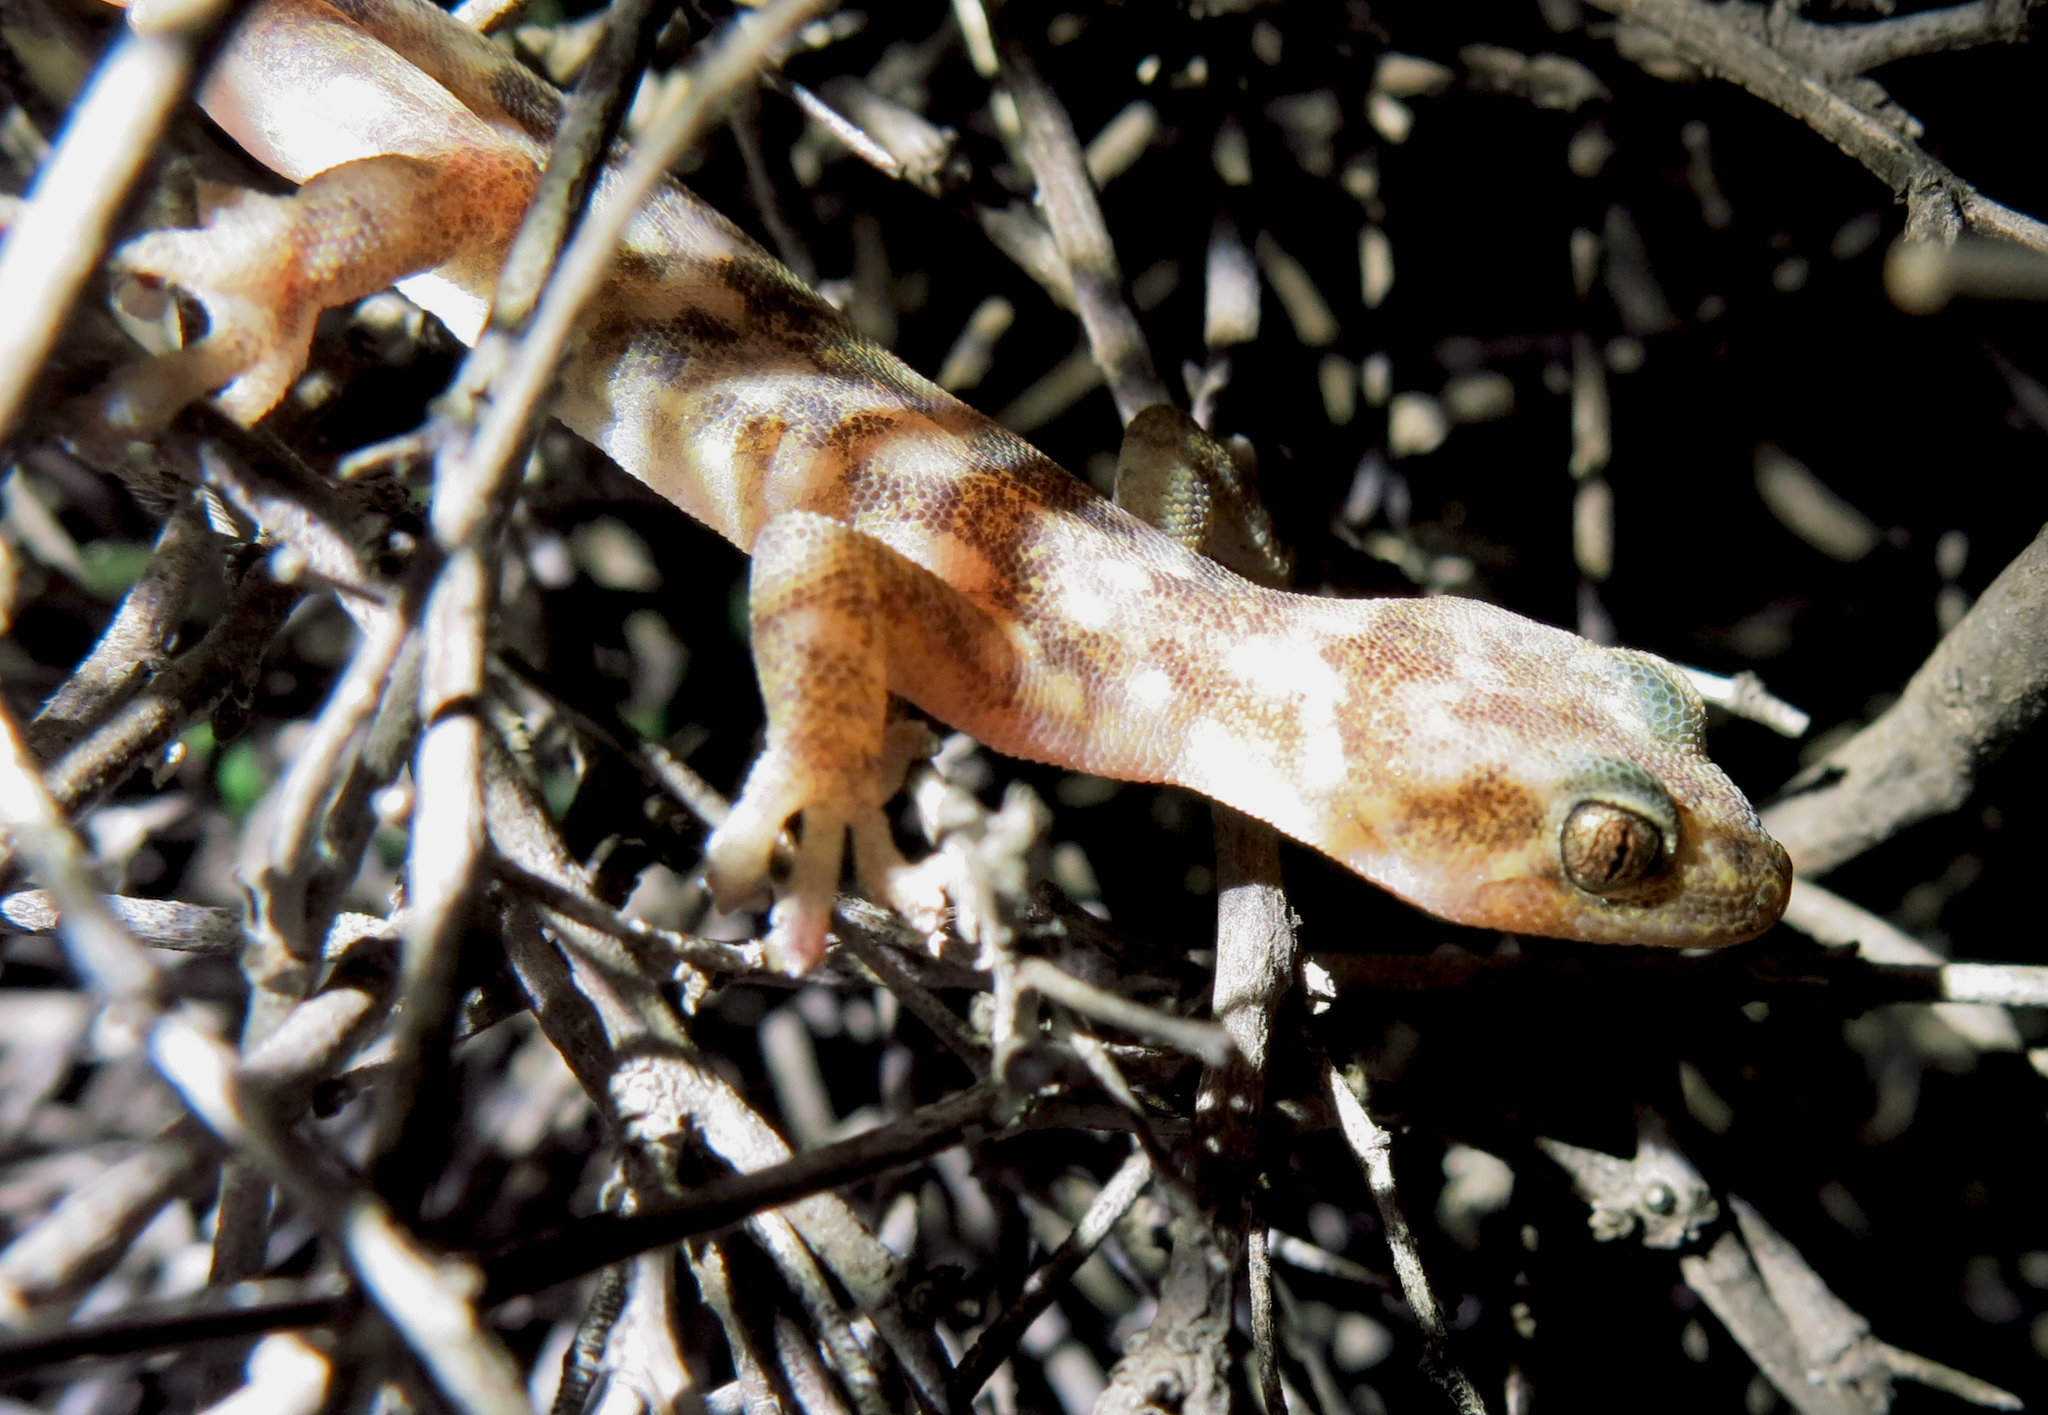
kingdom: Animalia
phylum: Chordata
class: Squamata
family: Gekkonidae
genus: Afroedura
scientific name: Afroedura namaquensis
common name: Namaqua flat gecko
